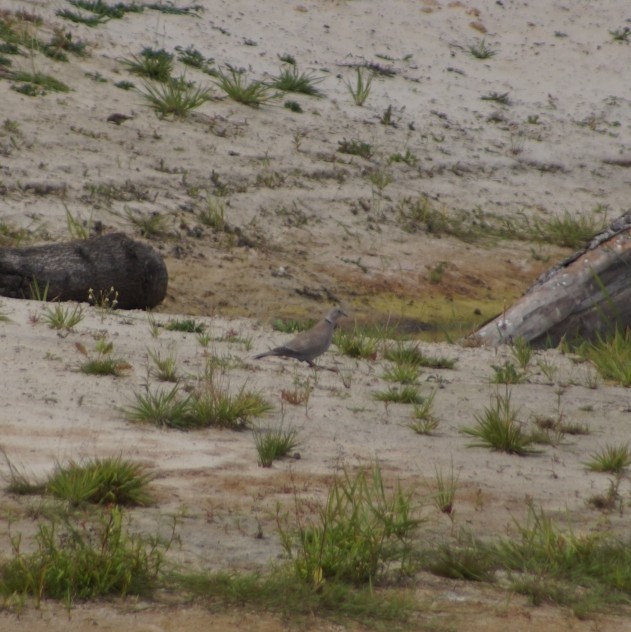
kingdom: Animalia
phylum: Chordata
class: Aves
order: Columbiformes
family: Columbidae
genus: Streptopelia
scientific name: Streptopelia decaocto
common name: Eurasian collared dove
